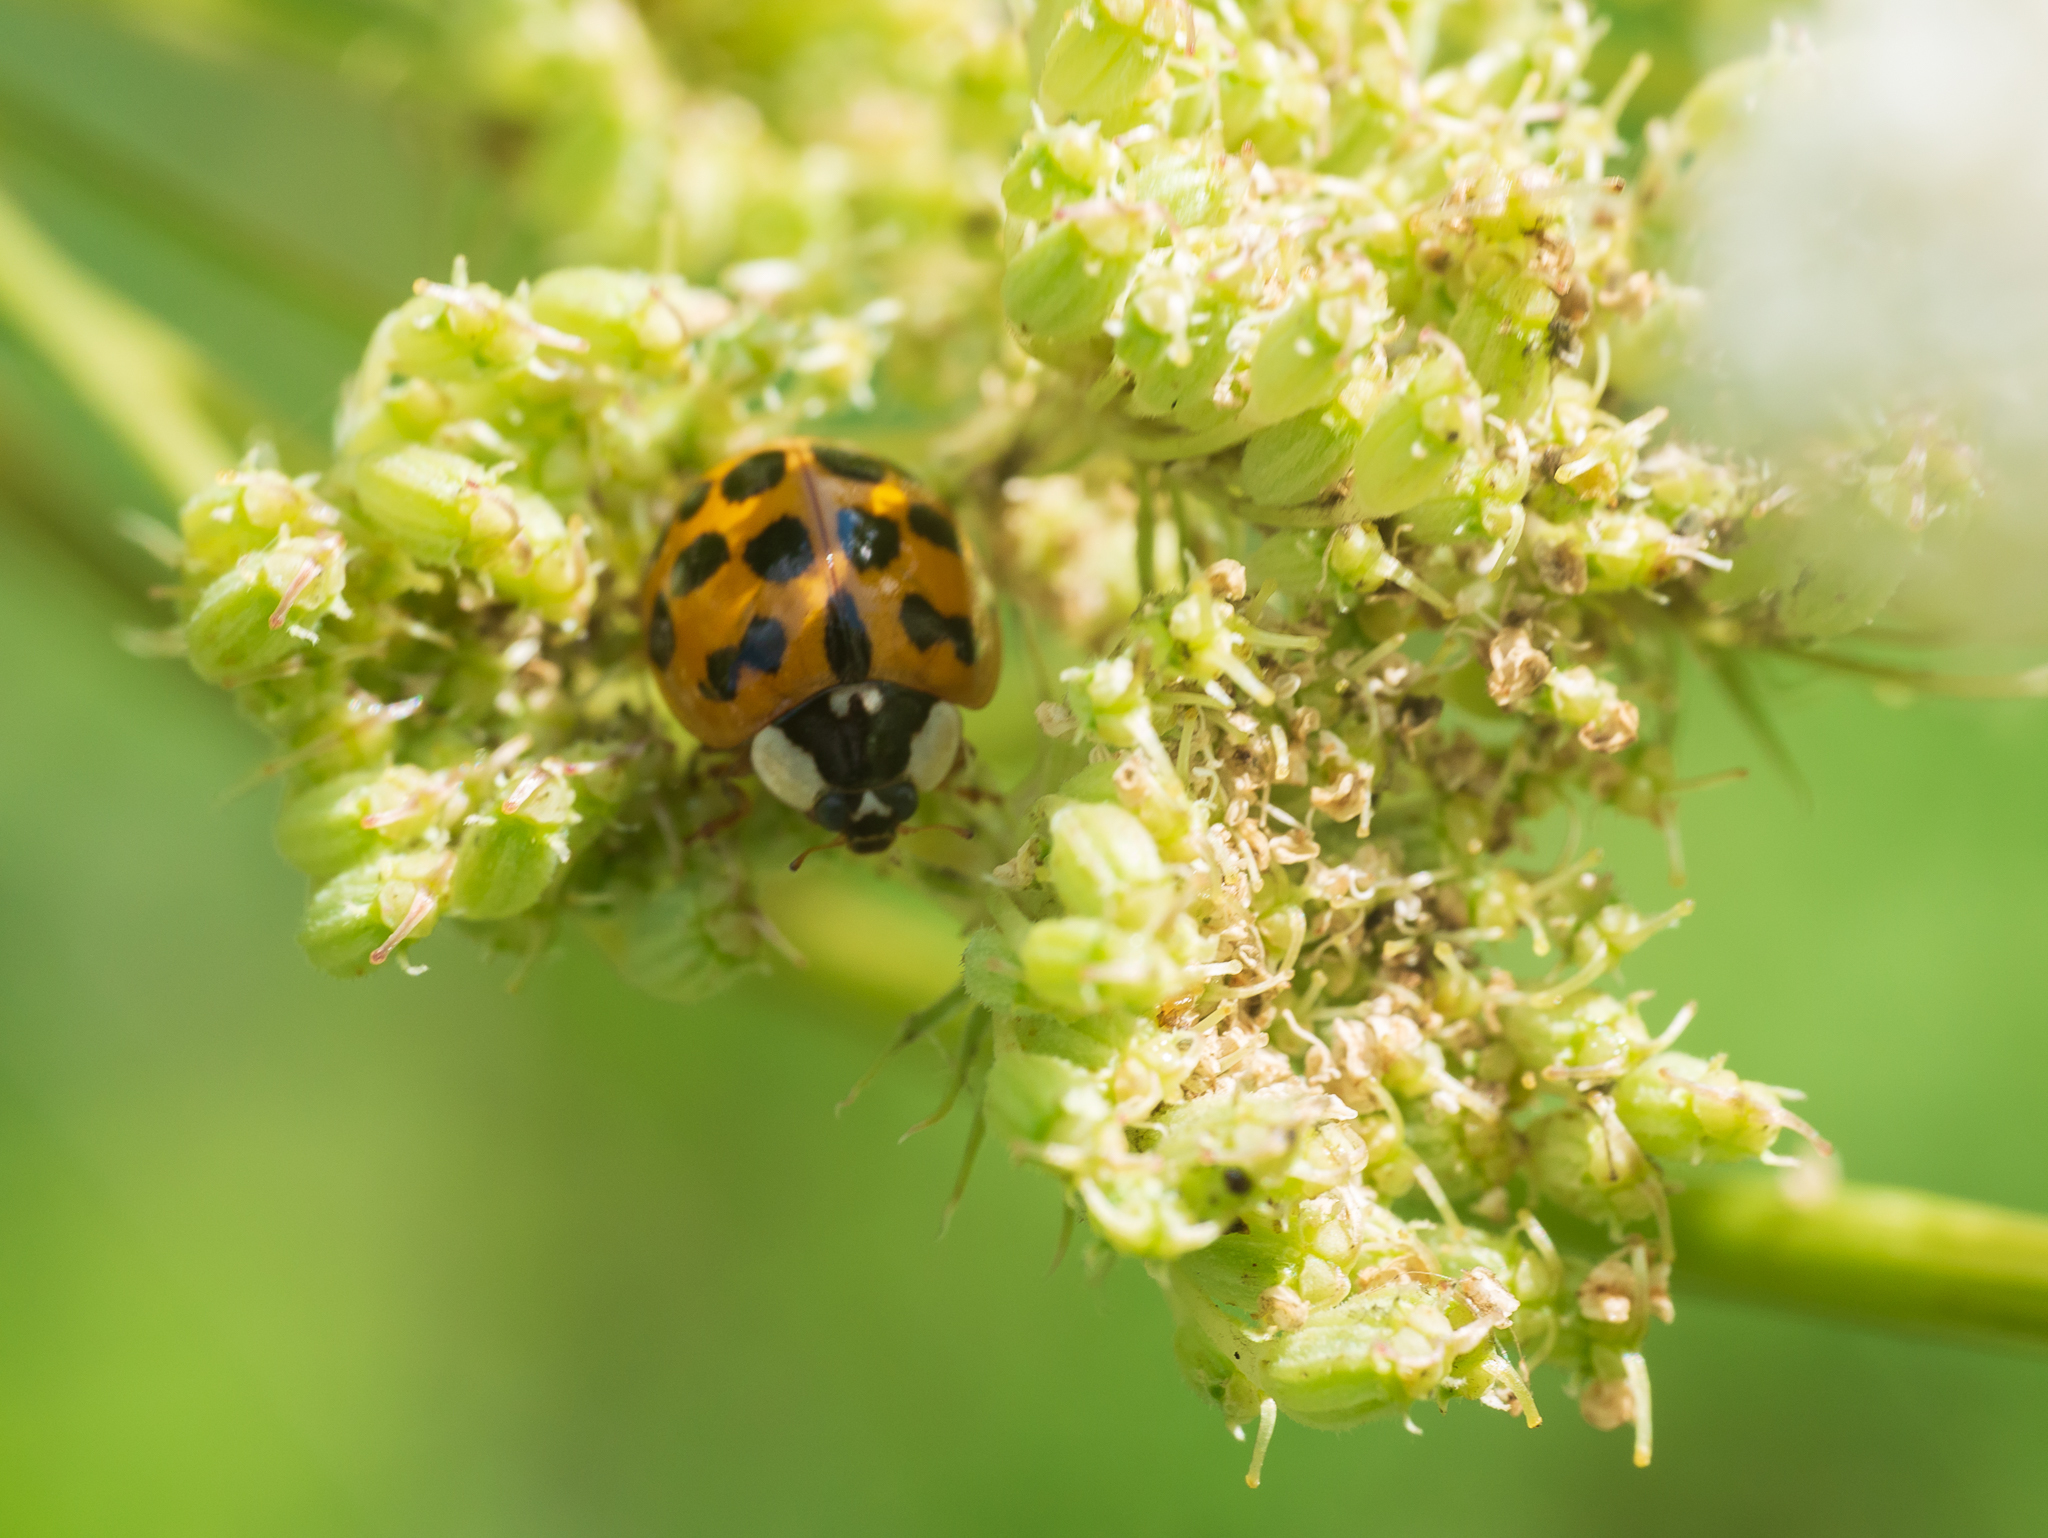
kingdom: Animalia
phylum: Arthropoda
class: Insecta
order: Coleoptera
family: Coccinellidae
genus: Harmonia
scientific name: Harmonia axyridis
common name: Harlequin ladybird
